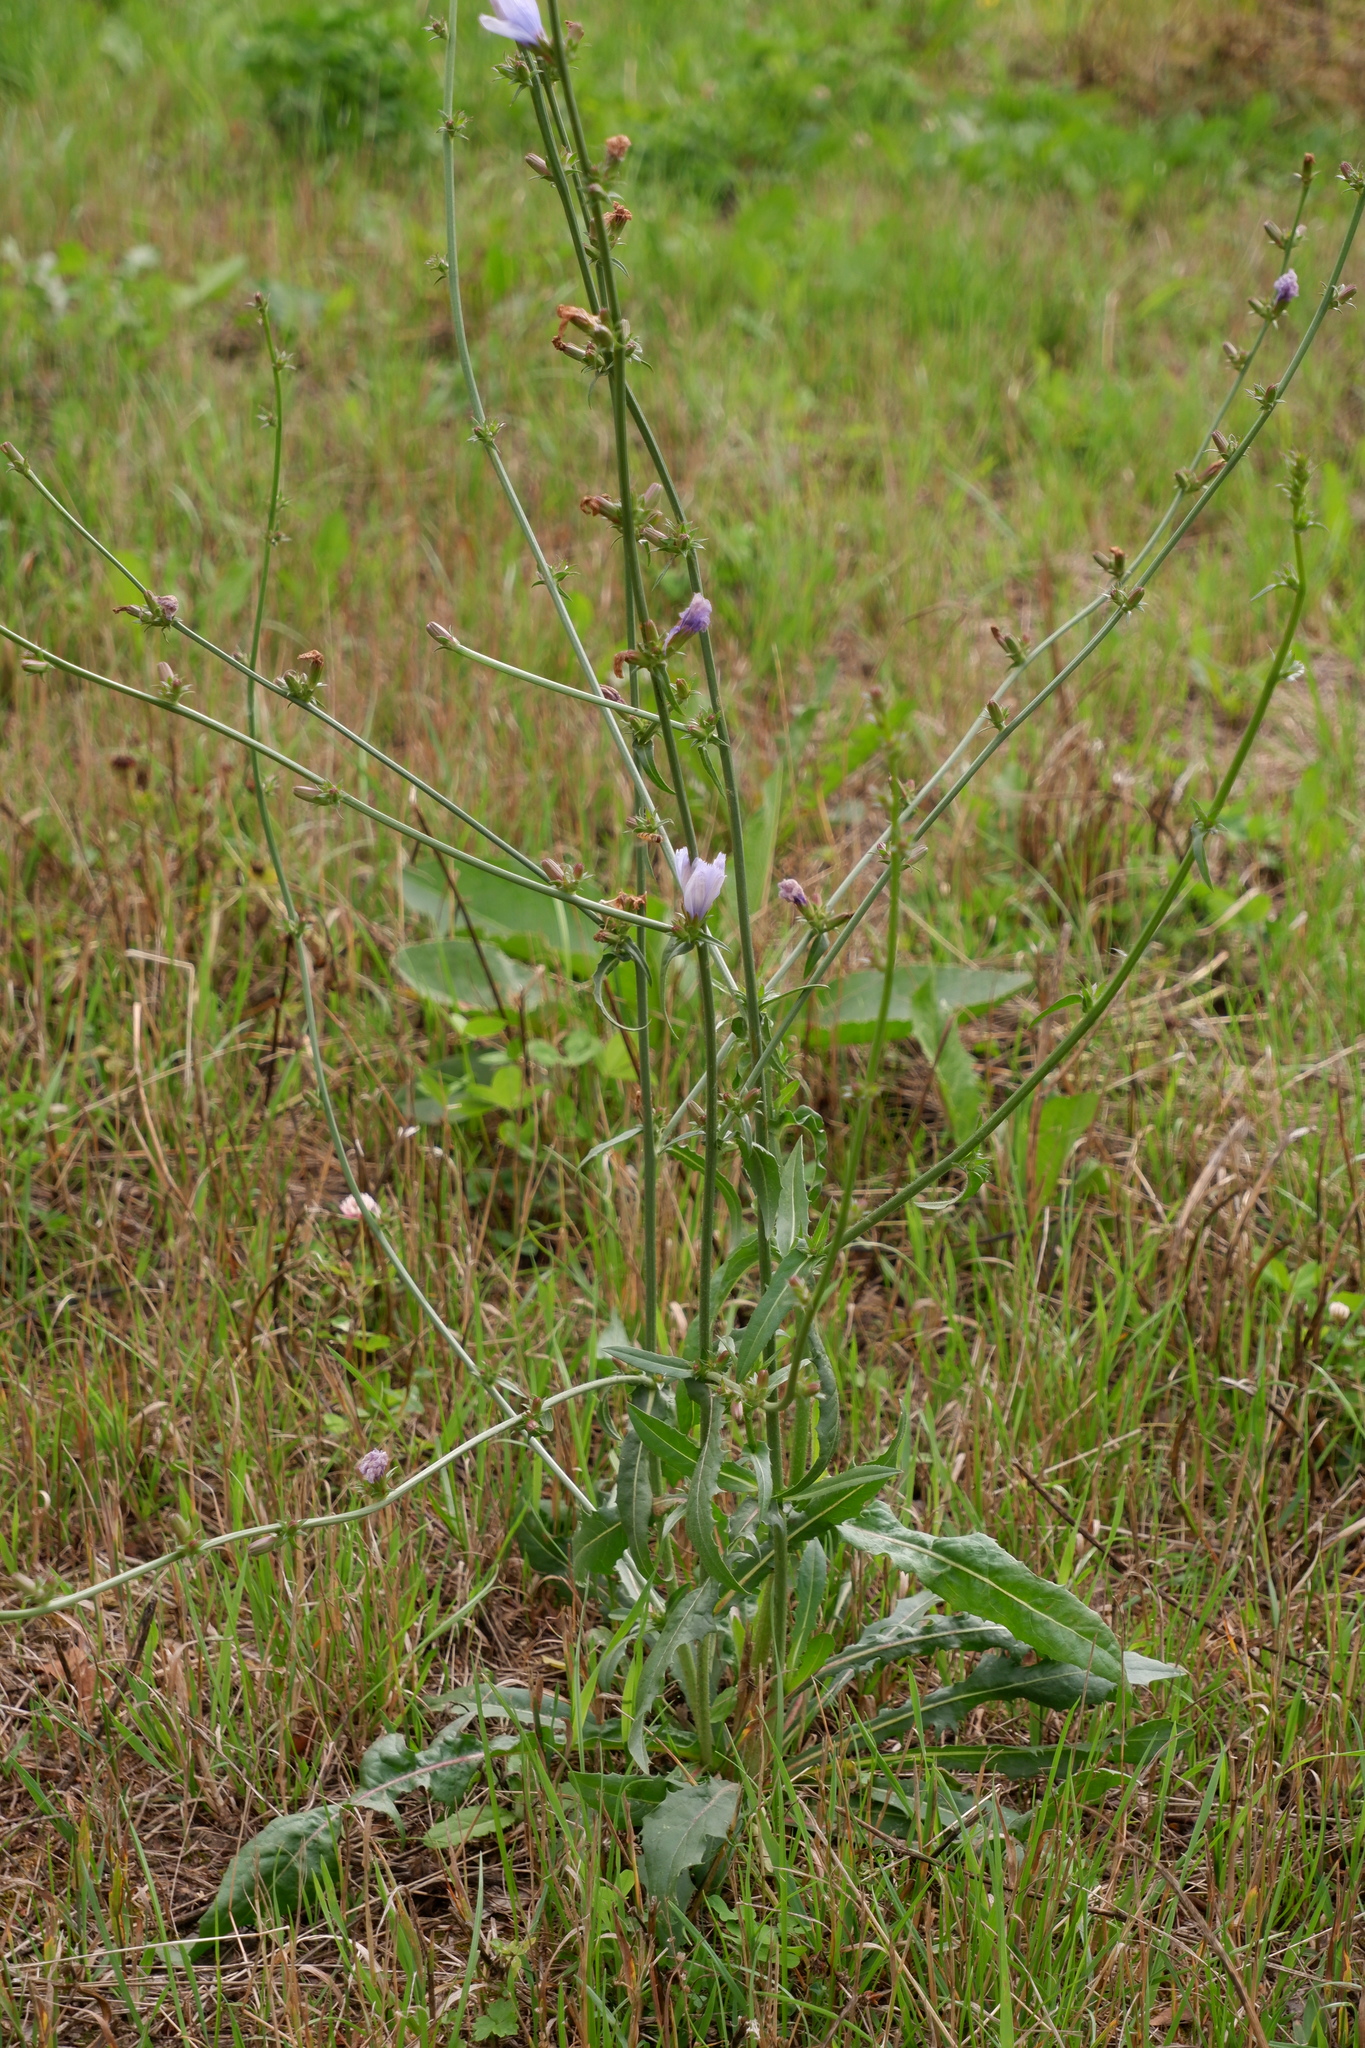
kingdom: Plantae
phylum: Tracheophyta
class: Magnoliopsida
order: Asterales
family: Asteraceae
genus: Cichorium
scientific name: Cichorium intybus
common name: Chicory
